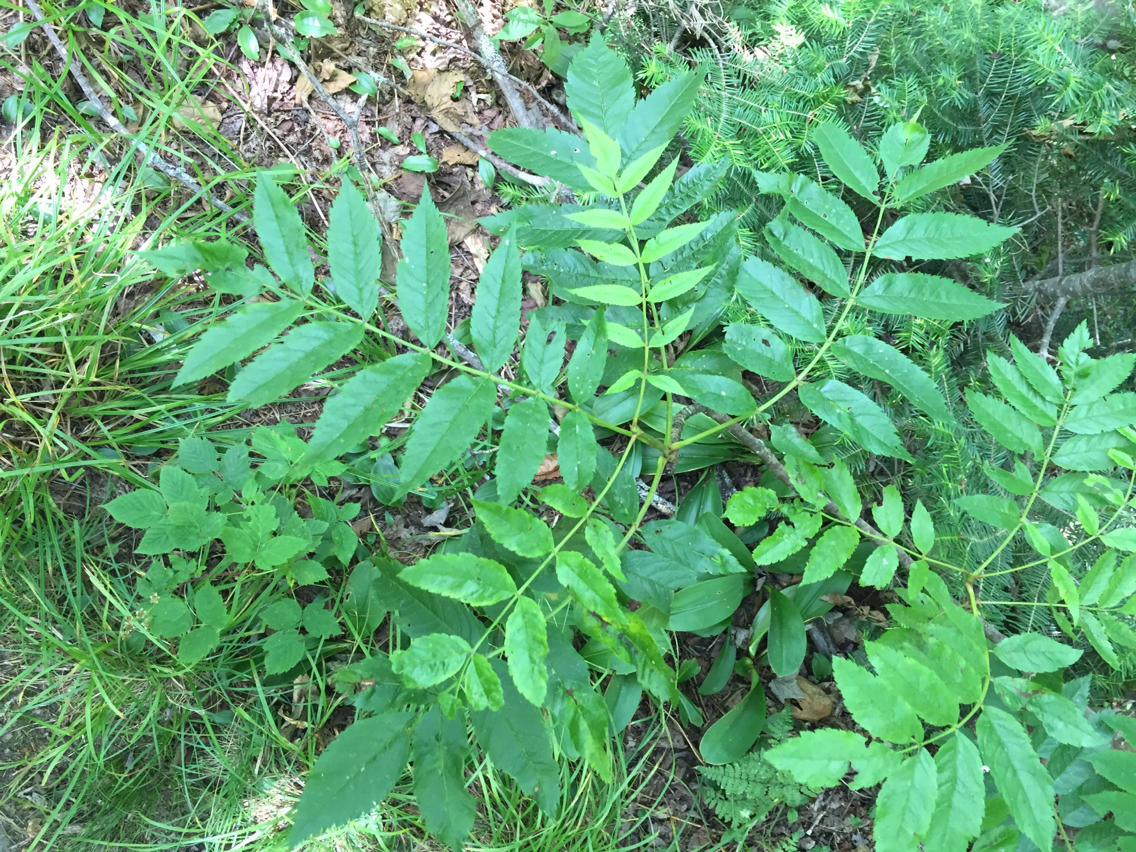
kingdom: Plantae
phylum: Tracheophyta
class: Magnoliopsida
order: Rosales
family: Rosaceae
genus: Sorbus
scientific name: Sorbus americana
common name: American mountain-ash
